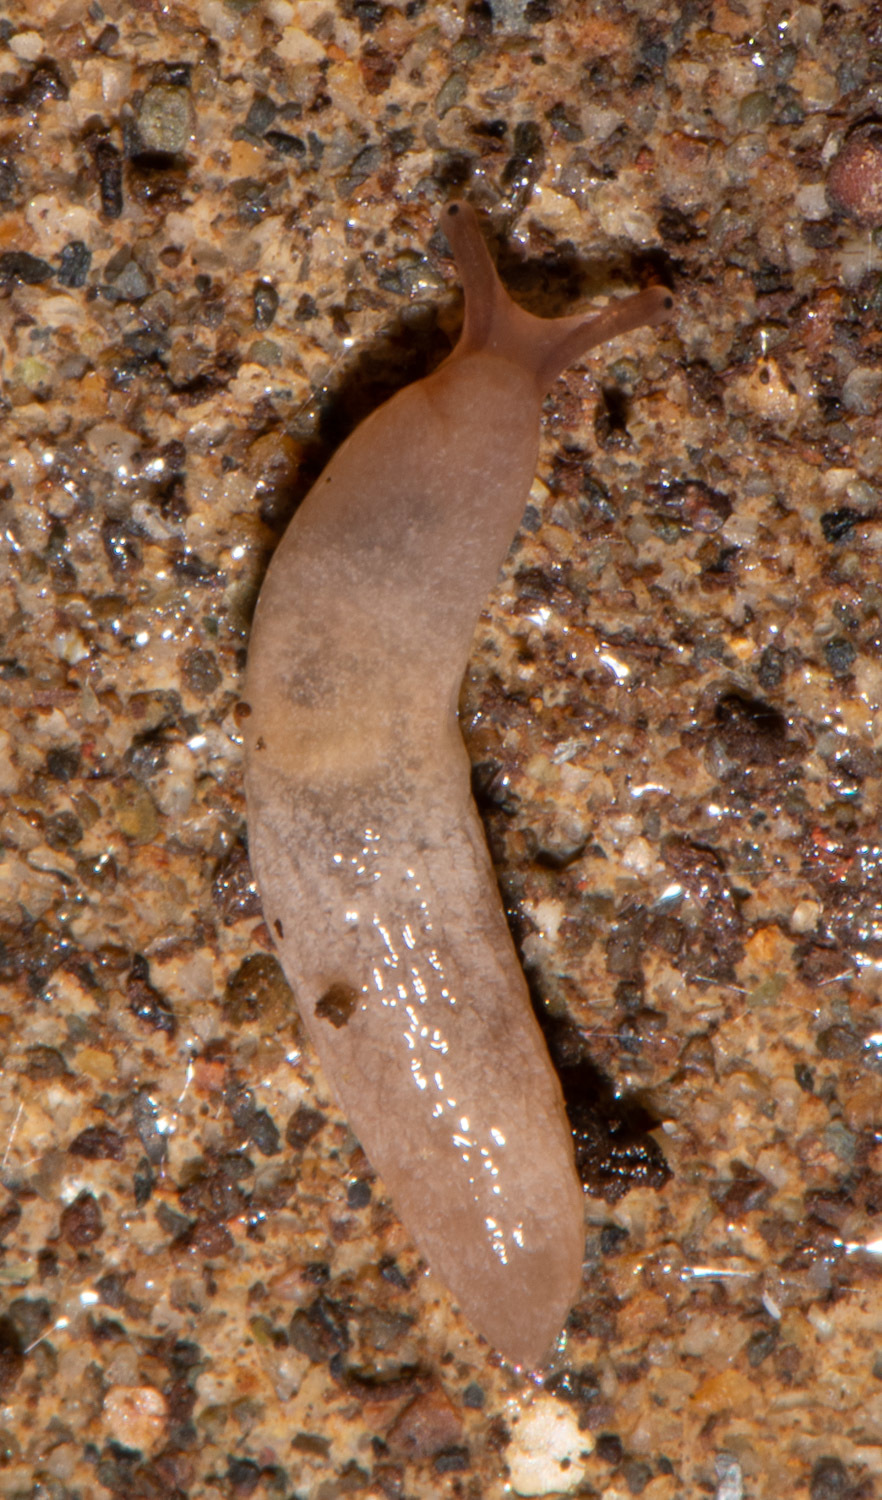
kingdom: Animalia
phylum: Mollusca
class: Gastropoda
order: Stylommatophora
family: Agriolimacidae
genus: Deroceras
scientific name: Deroceras reticulatum
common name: Gray field slug
